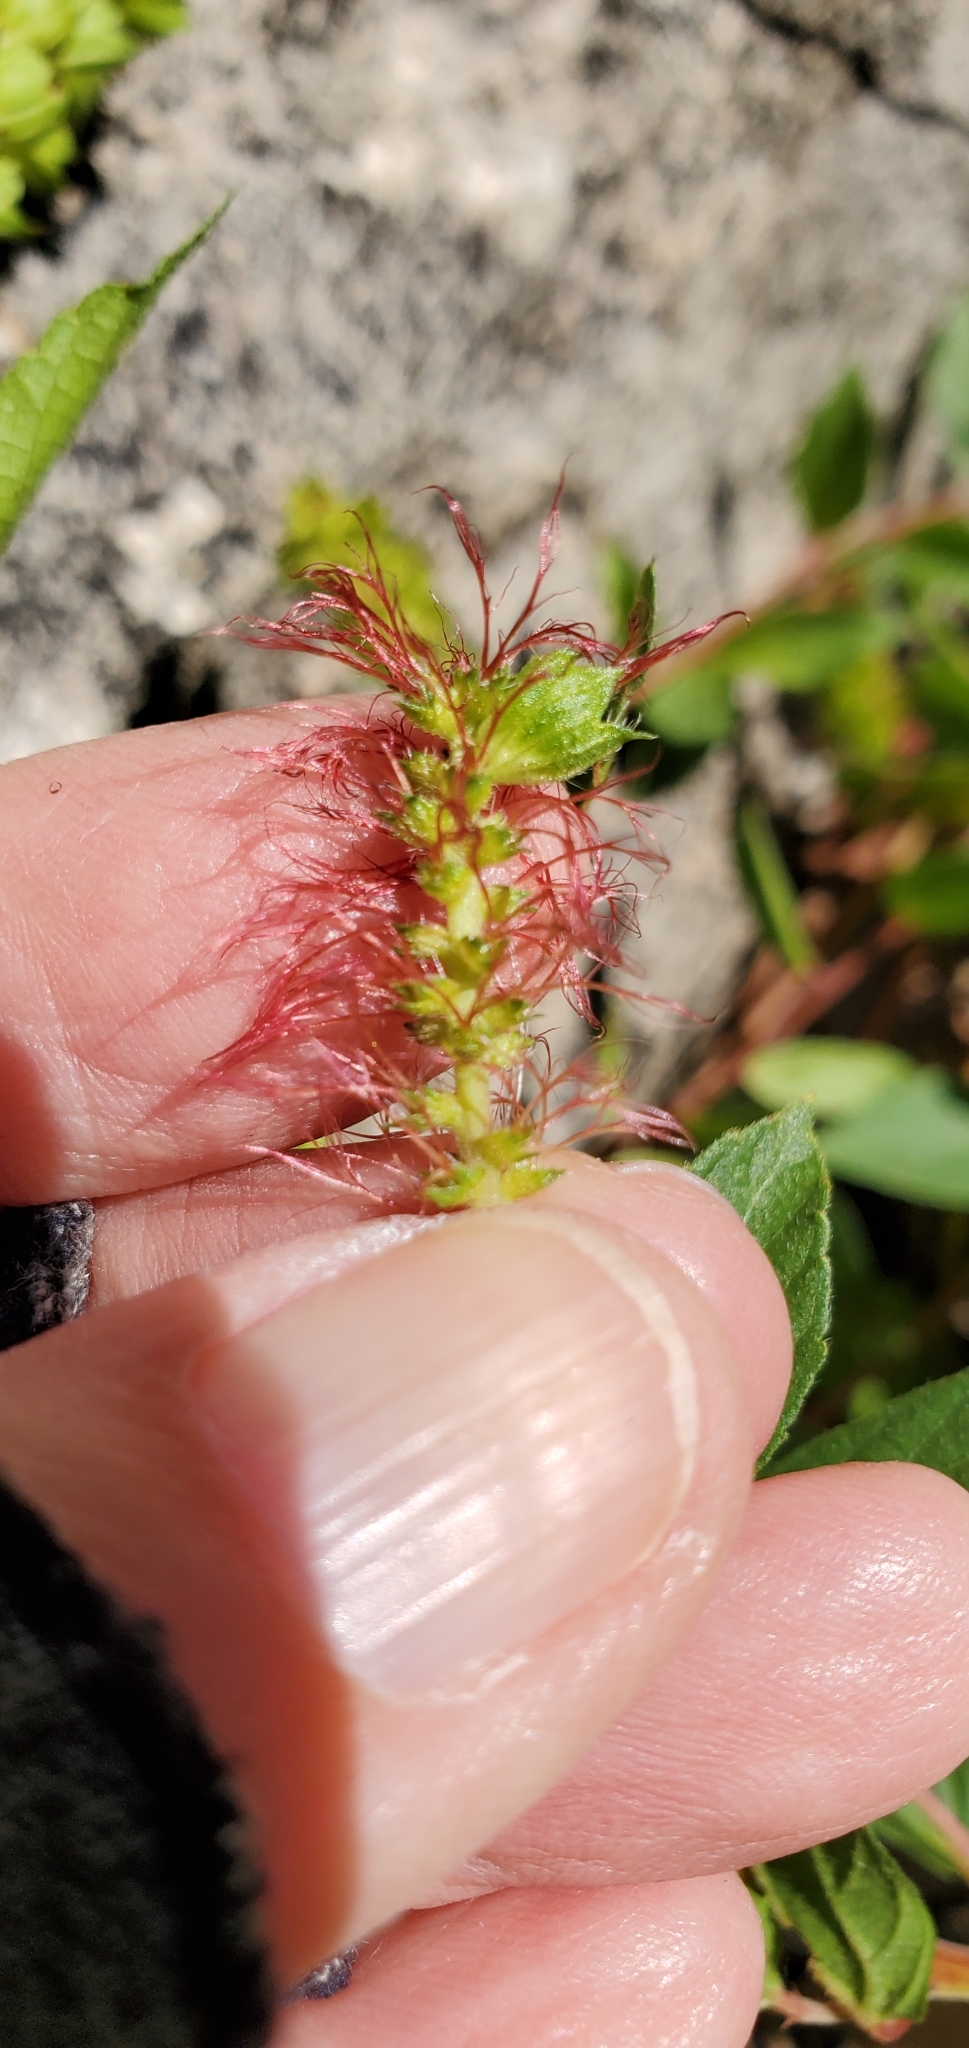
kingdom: Plantae
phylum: Tracheophyta
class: Magnoliopsida
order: Malpighiales
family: Euphorbiaceae
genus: Acalypha
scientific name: Acalypha neomexicana
